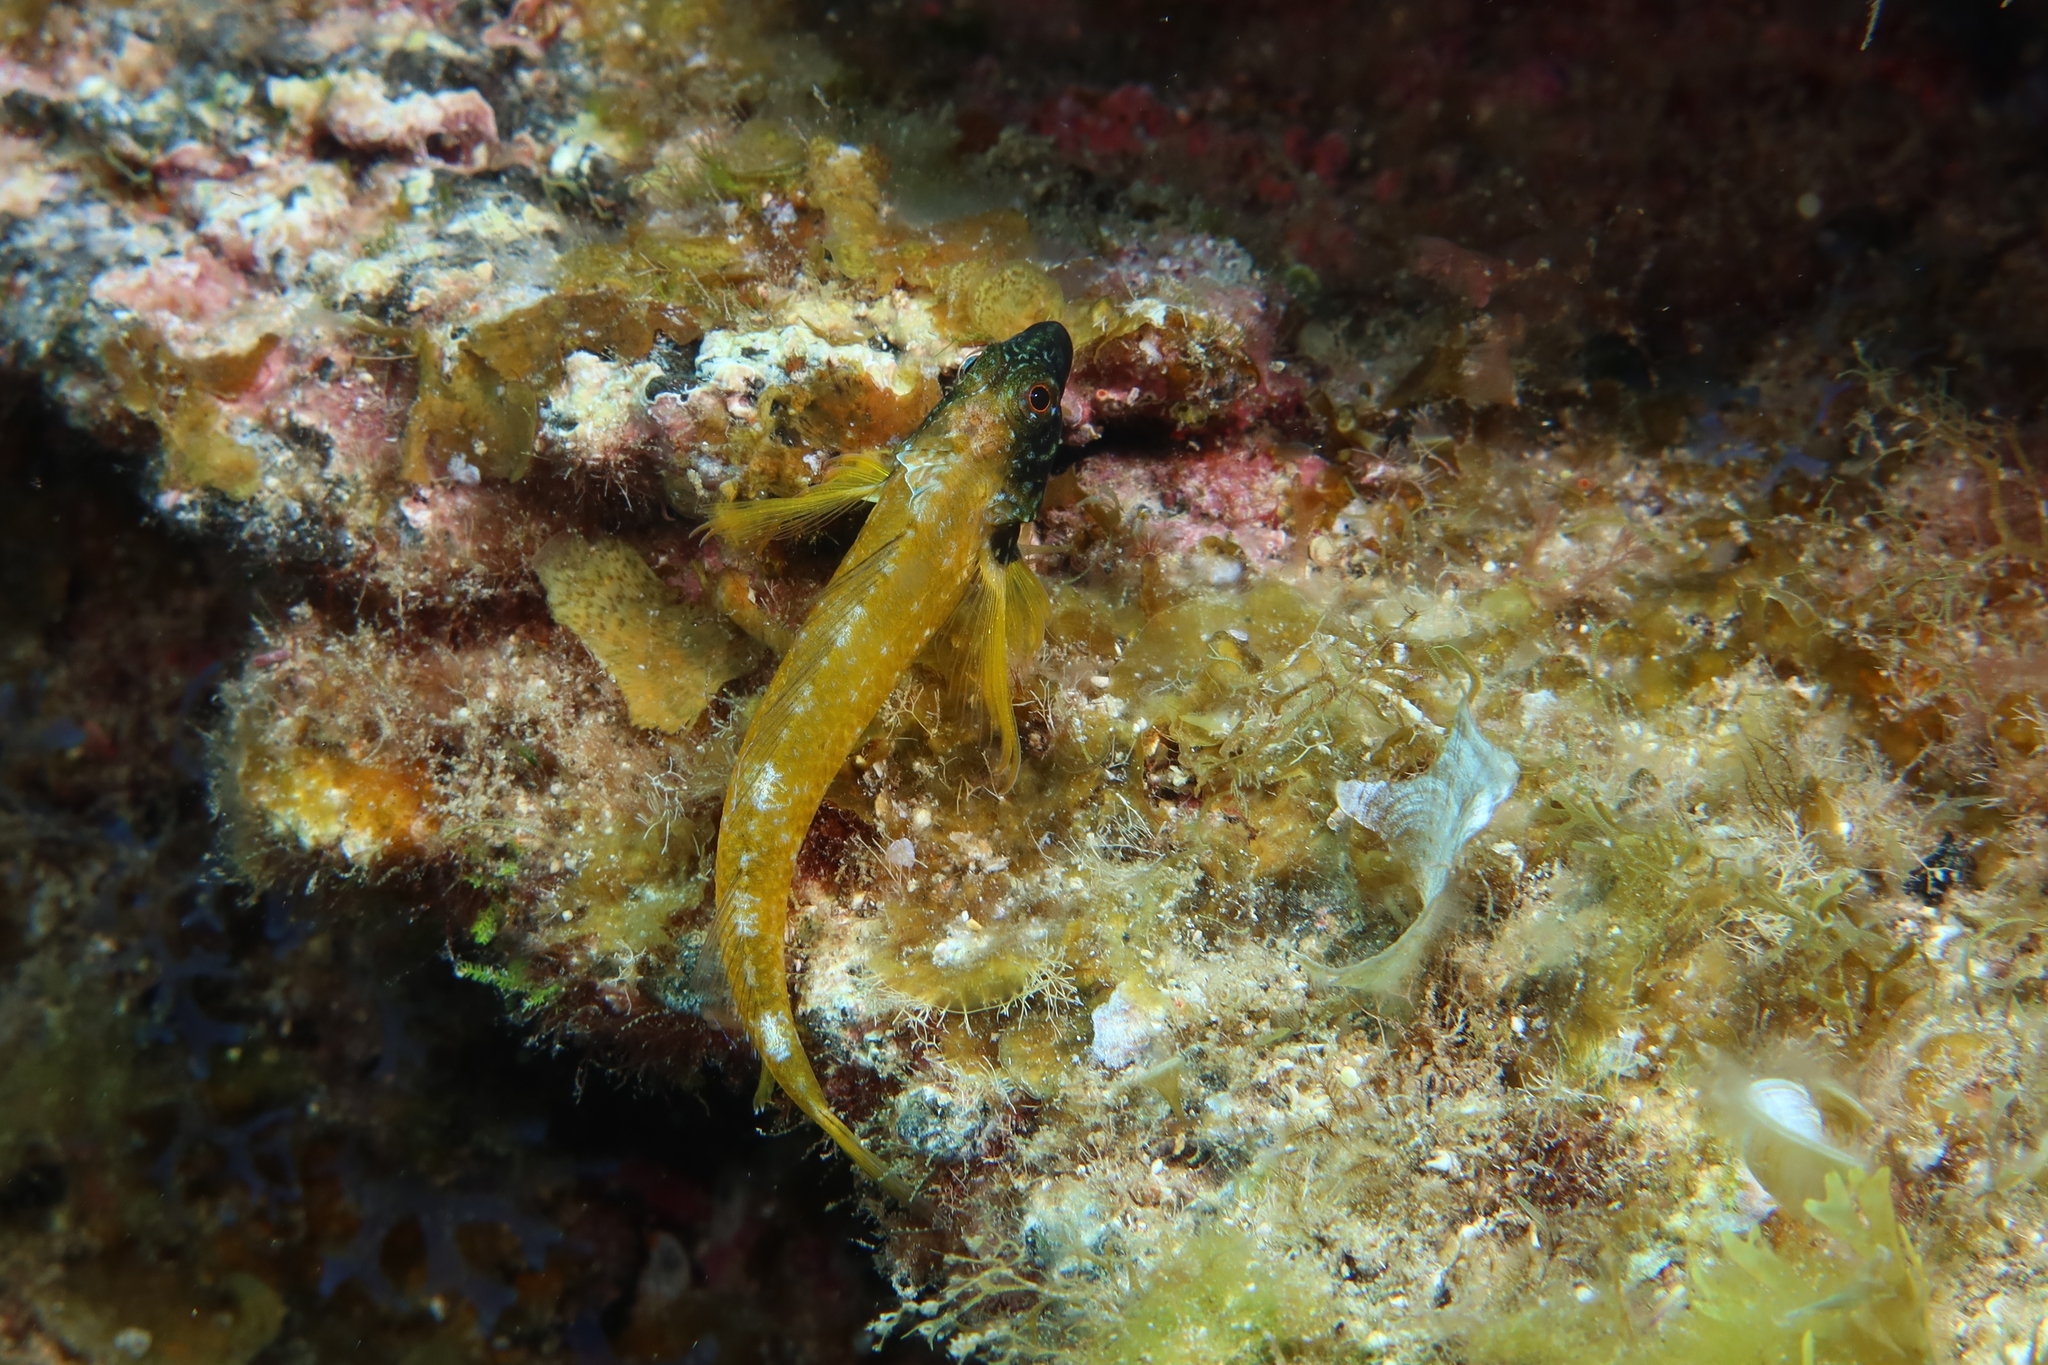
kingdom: Animalia
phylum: Chordata
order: Perciformes
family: Tripterygiidae
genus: Tripterygion
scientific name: Tripterygion delaisi
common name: Black-face blenny
